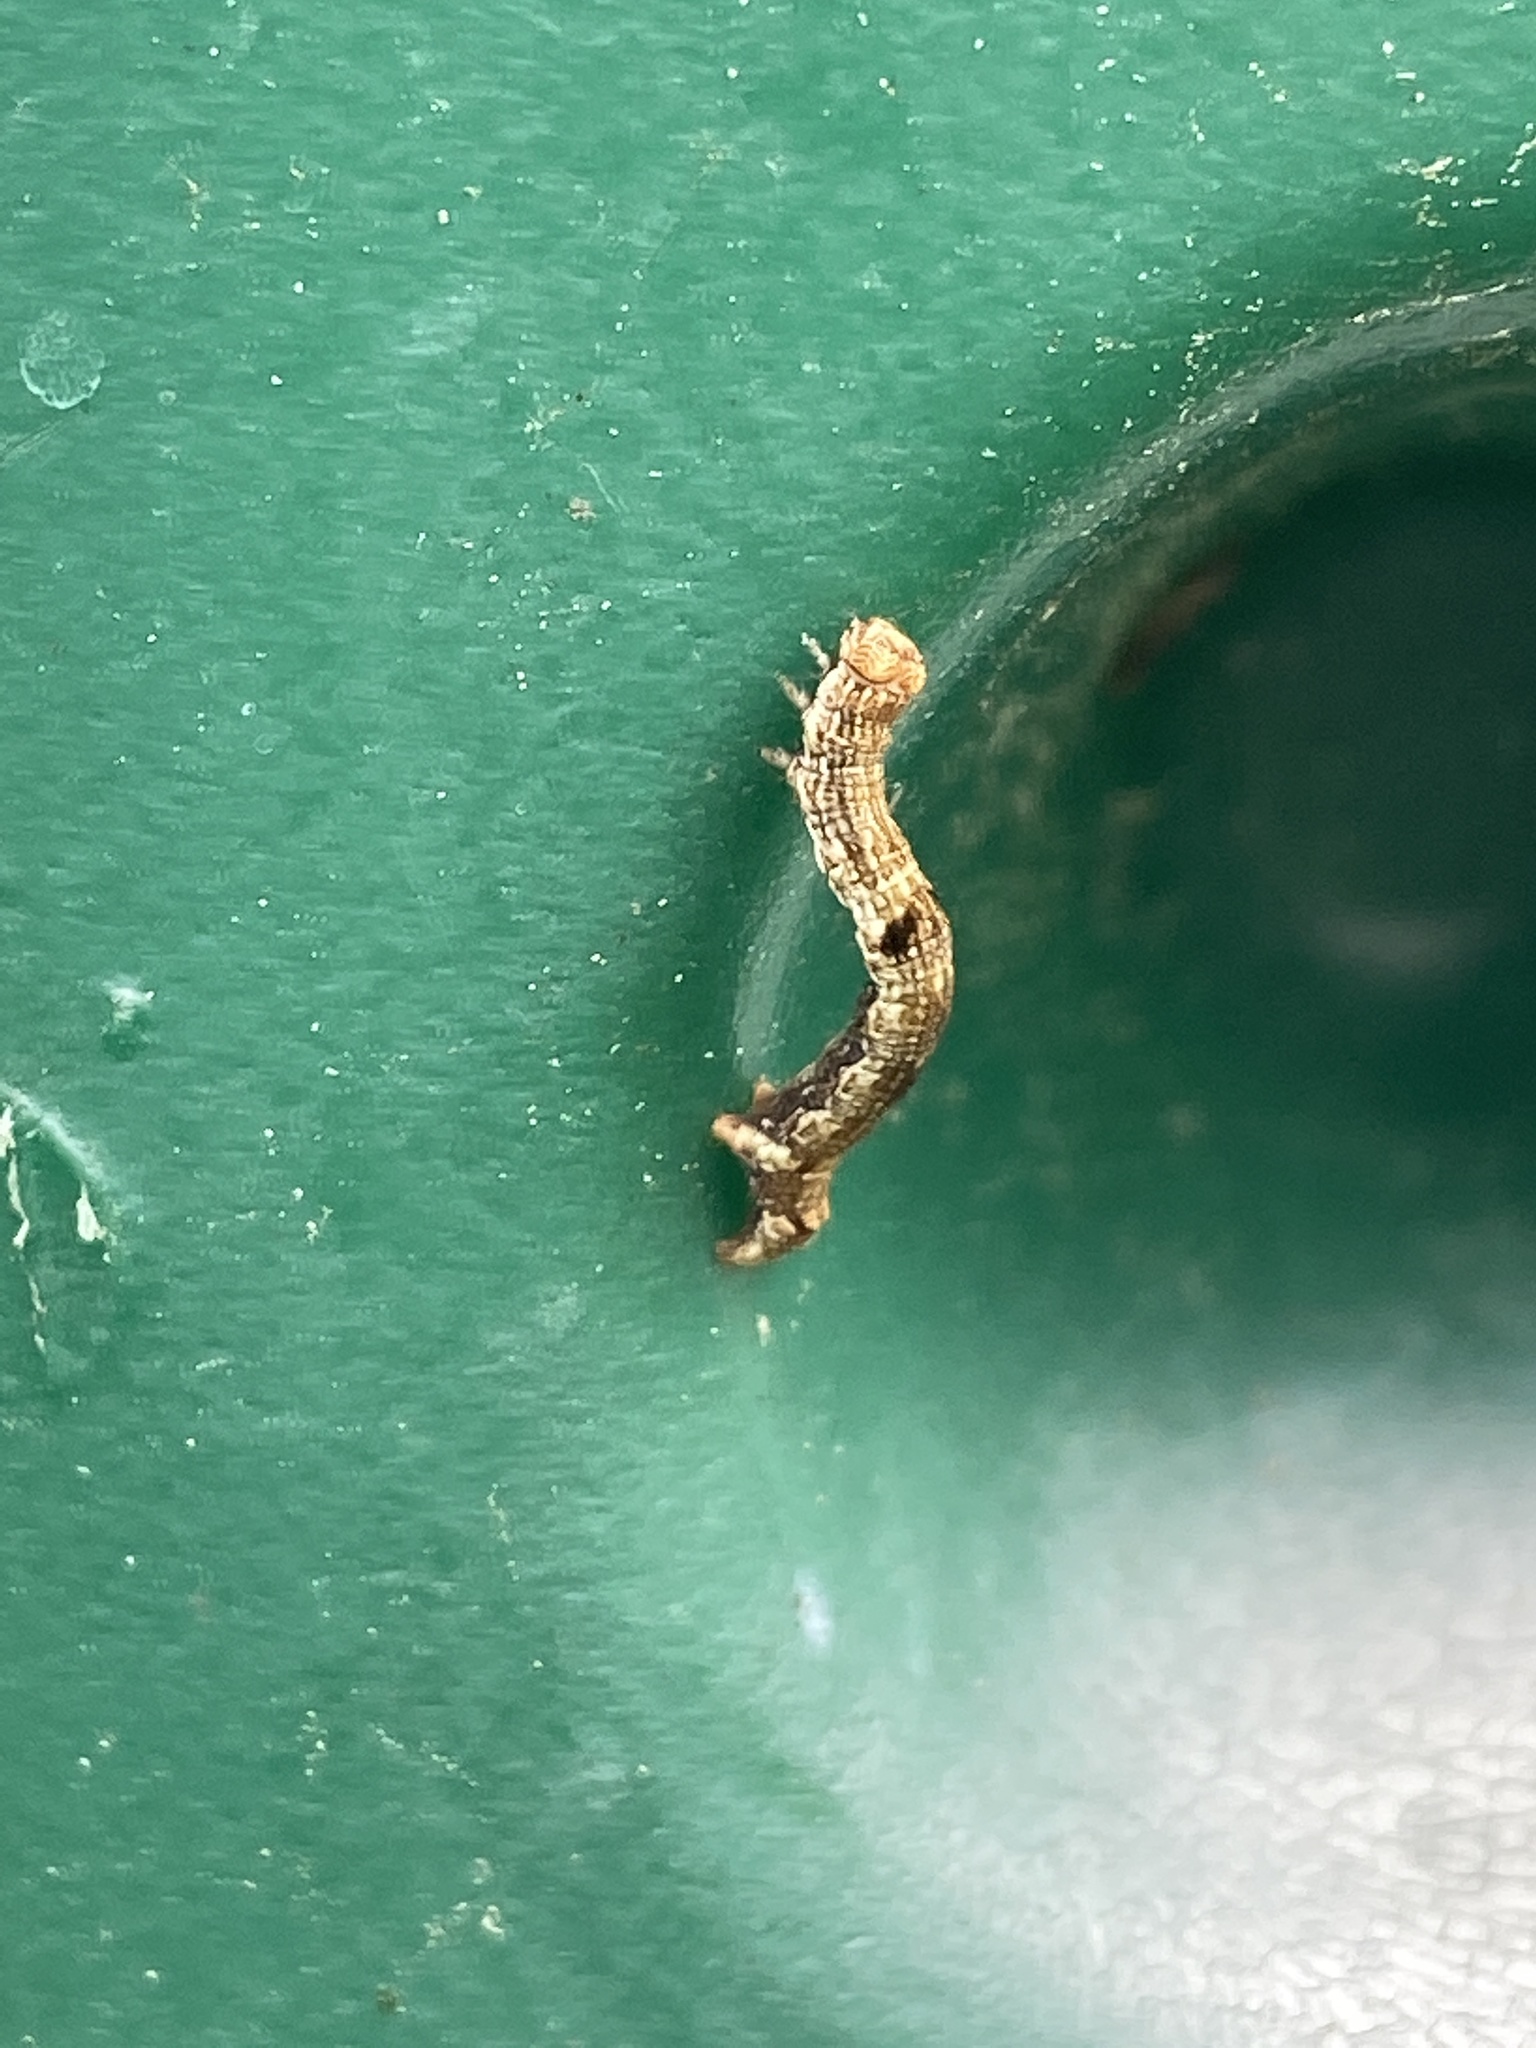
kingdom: Animalia
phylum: Arthropoda
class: Insecta
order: Lepidoptera
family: Geometridae
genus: Ectropis
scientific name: Ectropis crepuscularia
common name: Engrailed
